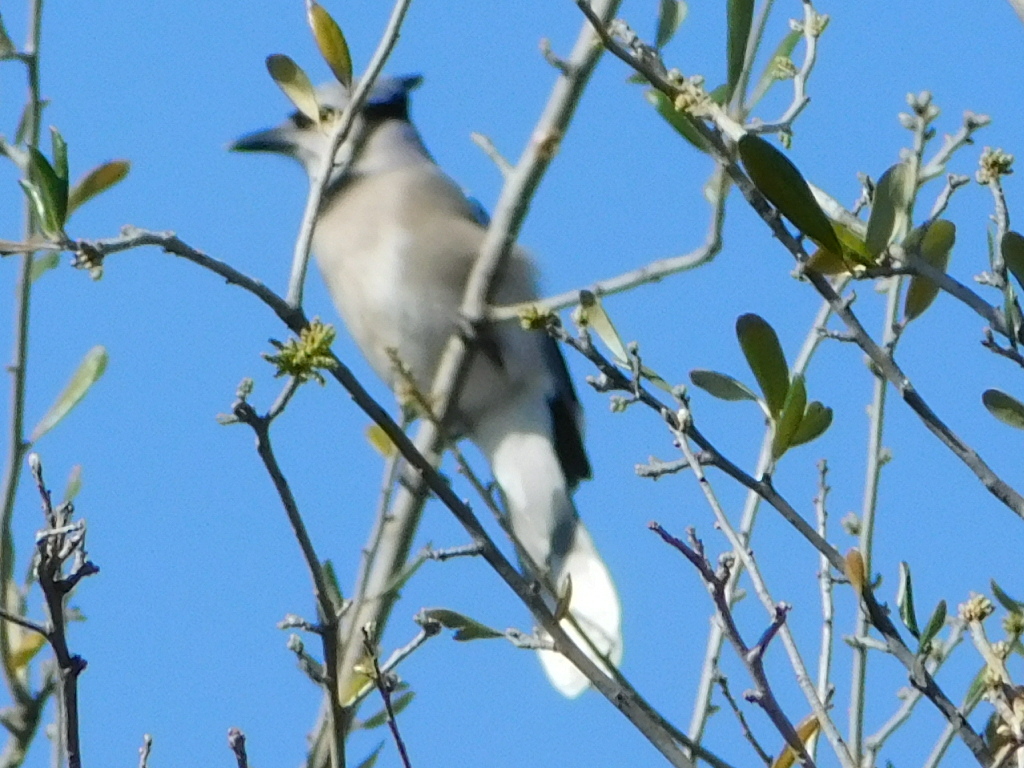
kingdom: Animalia
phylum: Chordata
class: Aves
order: Passeriformes
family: Corvidae
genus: Cyanocitta
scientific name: Cyanocitta cristata
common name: Blue jay
